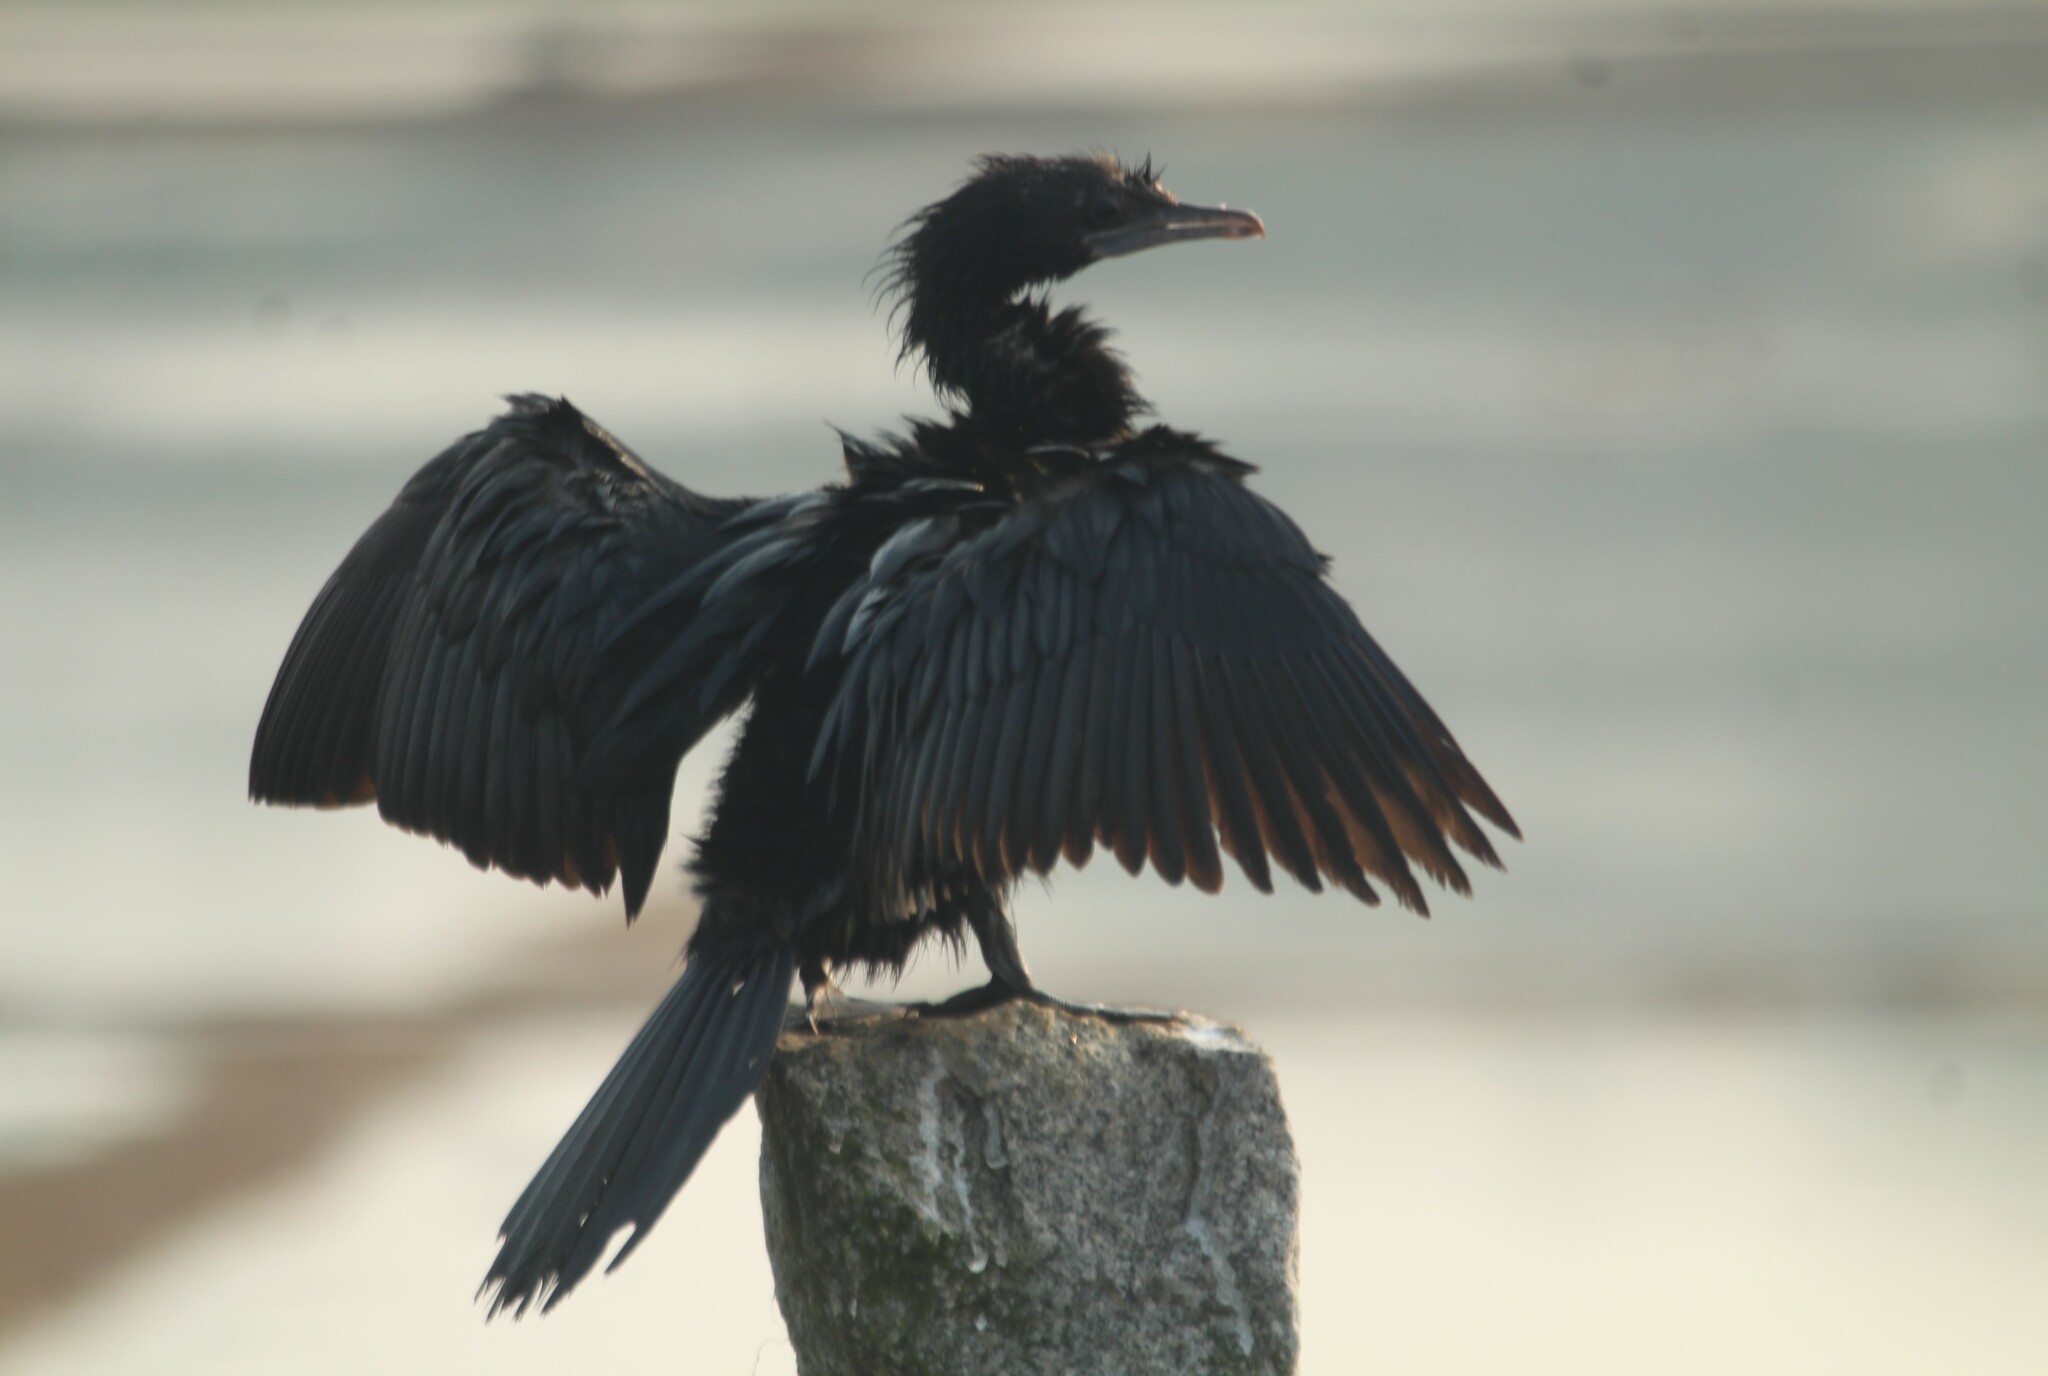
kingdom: Animalia
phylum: Chordata
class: Aves
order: Suliformes
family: Phalacrocoracidae
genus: Microcarbo
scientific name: Microcarbo niger
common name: Little cormorant
